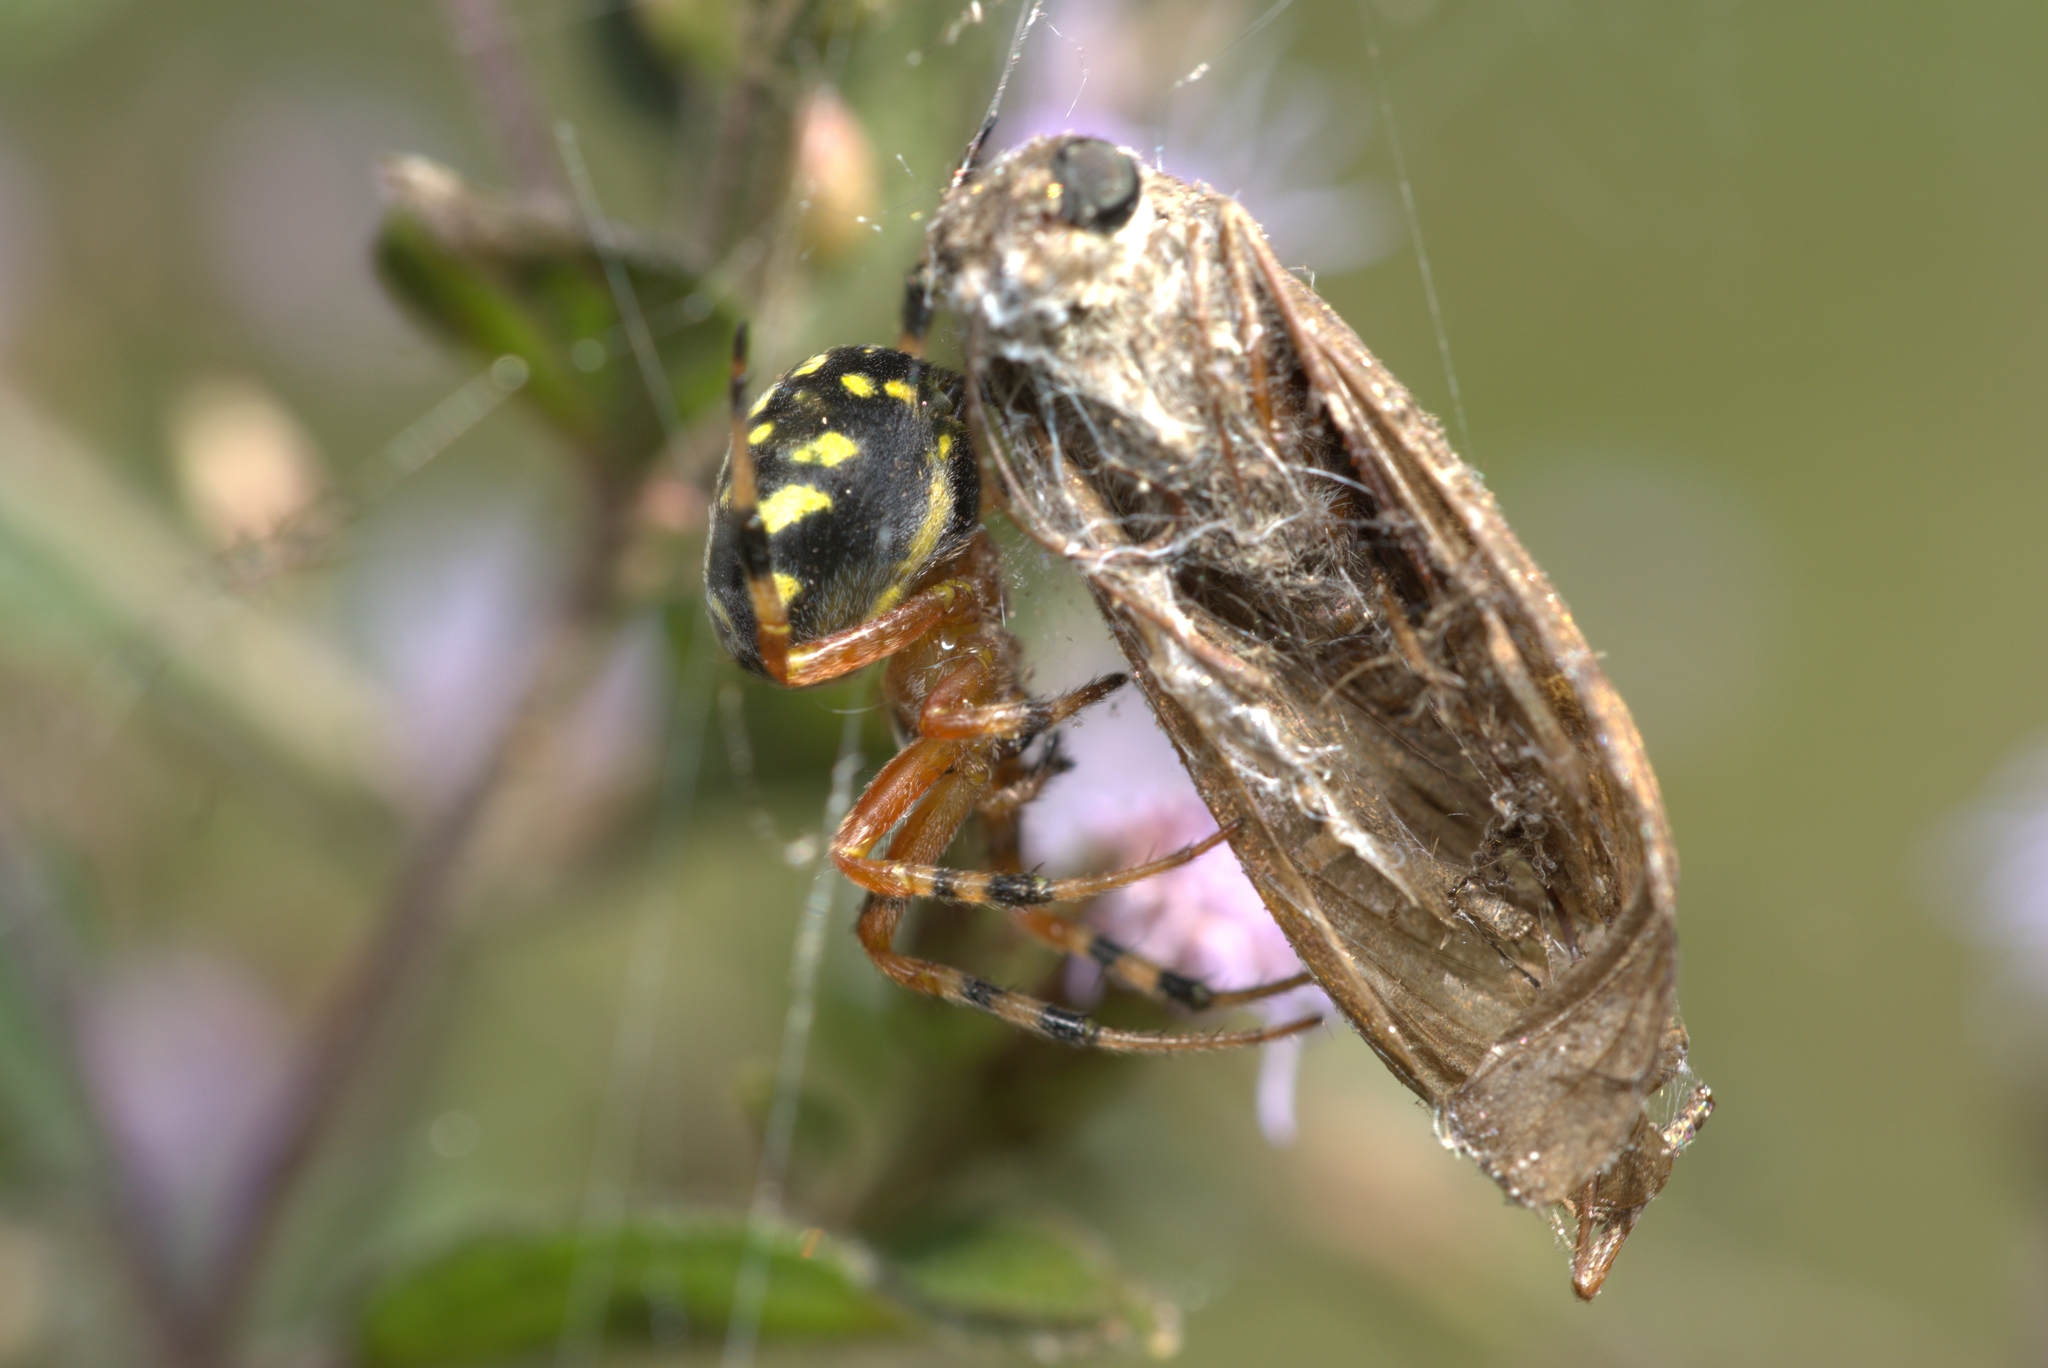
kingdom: Animalia
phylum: Arthropoda
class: Arachnida
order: Araneae
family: Araneidae
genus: Araneus
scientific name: Araneus workmani
